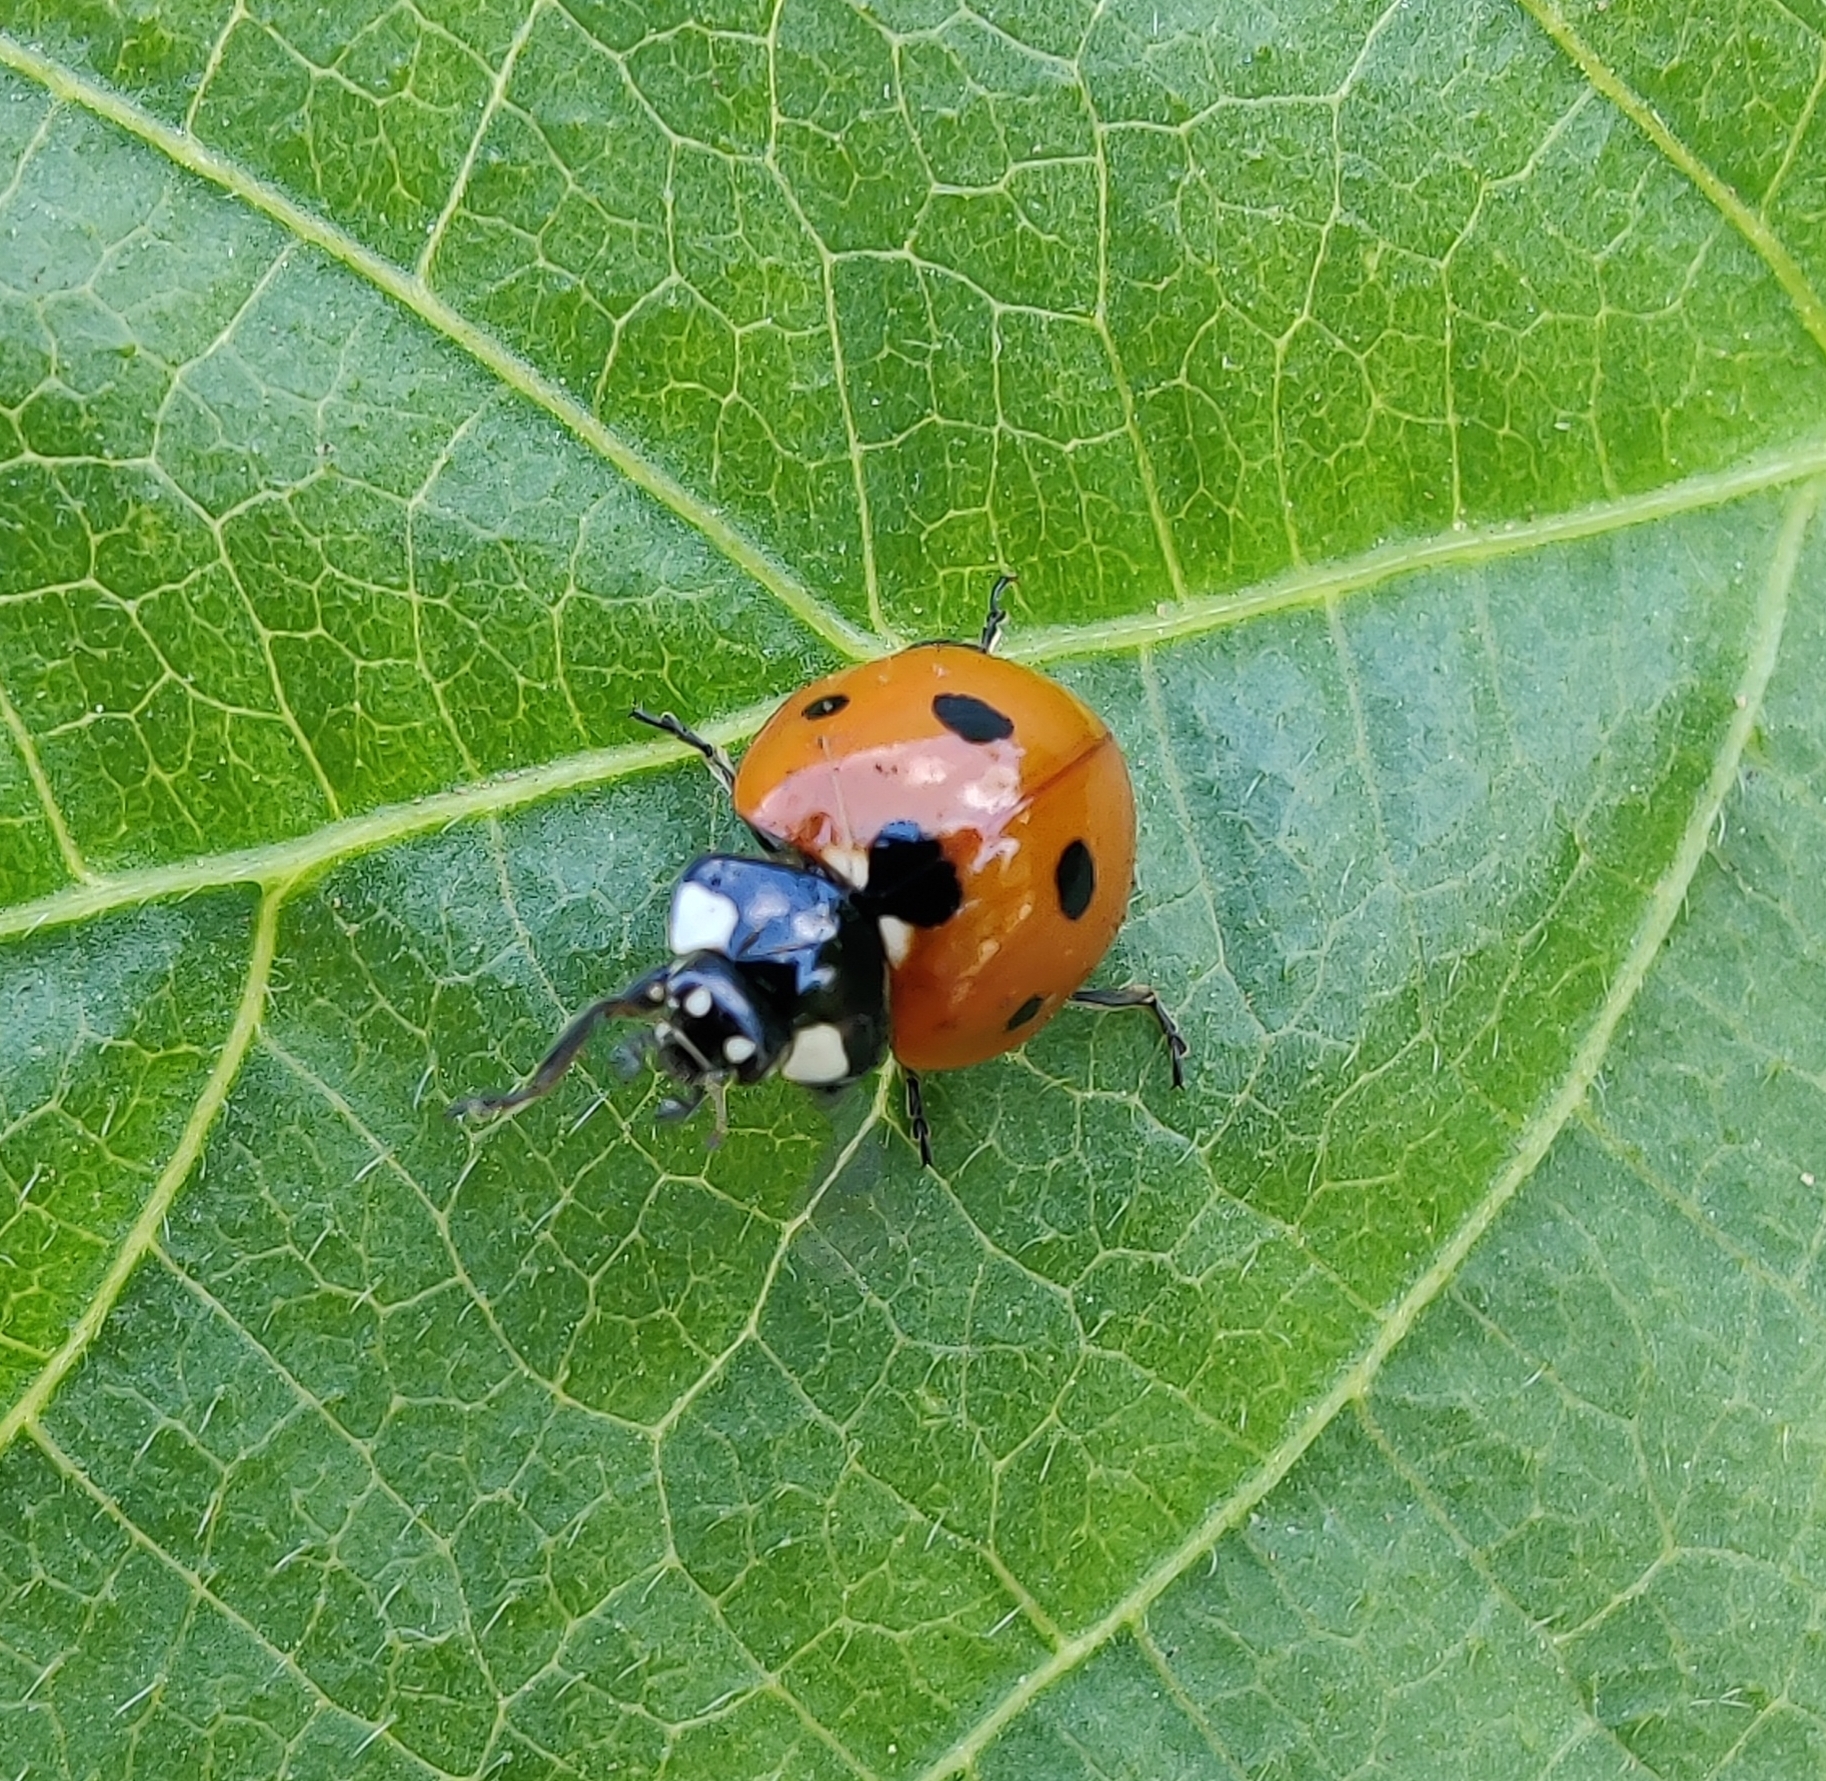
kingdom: Animalia
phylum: Arthropoda
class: Insecta
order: Coleoptera
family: Coccinellidae
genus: Coccinella
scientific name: Coccinella septempunctata
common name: Sevenspotted lady beetle
